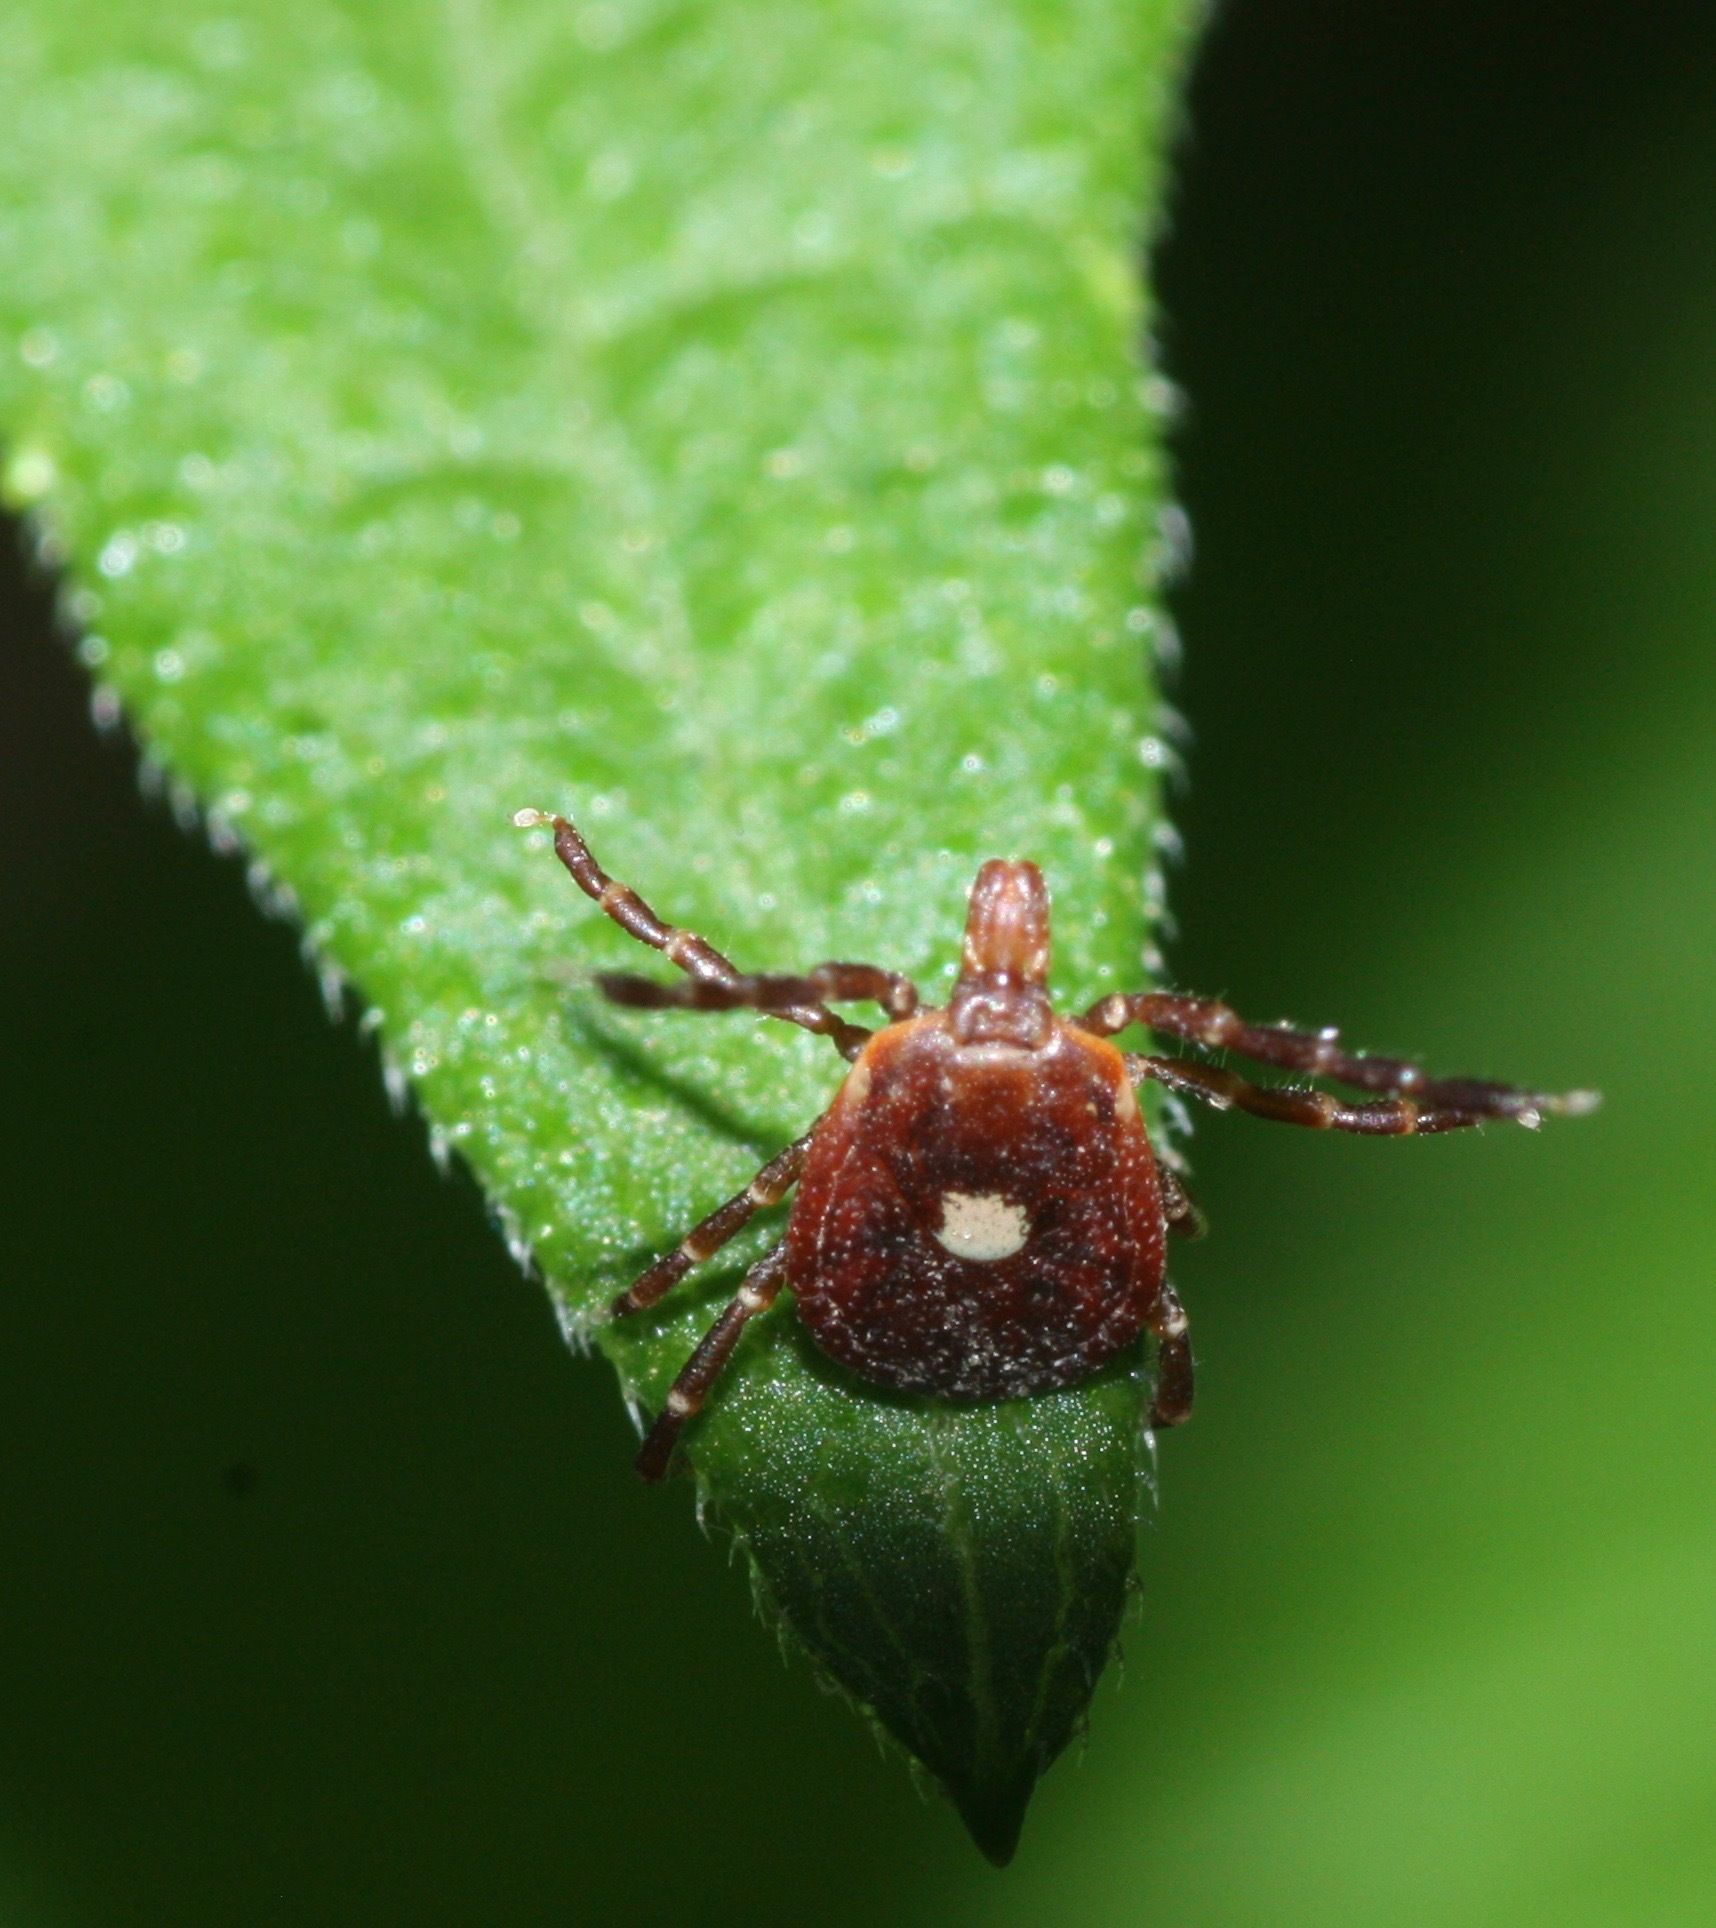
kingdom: Animalia
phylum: Arthropoda
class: Arachnida
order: Ixodida
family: Ixodidae
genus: Amblyomma
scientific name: Amblyomma americanum
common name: Lone star tick
